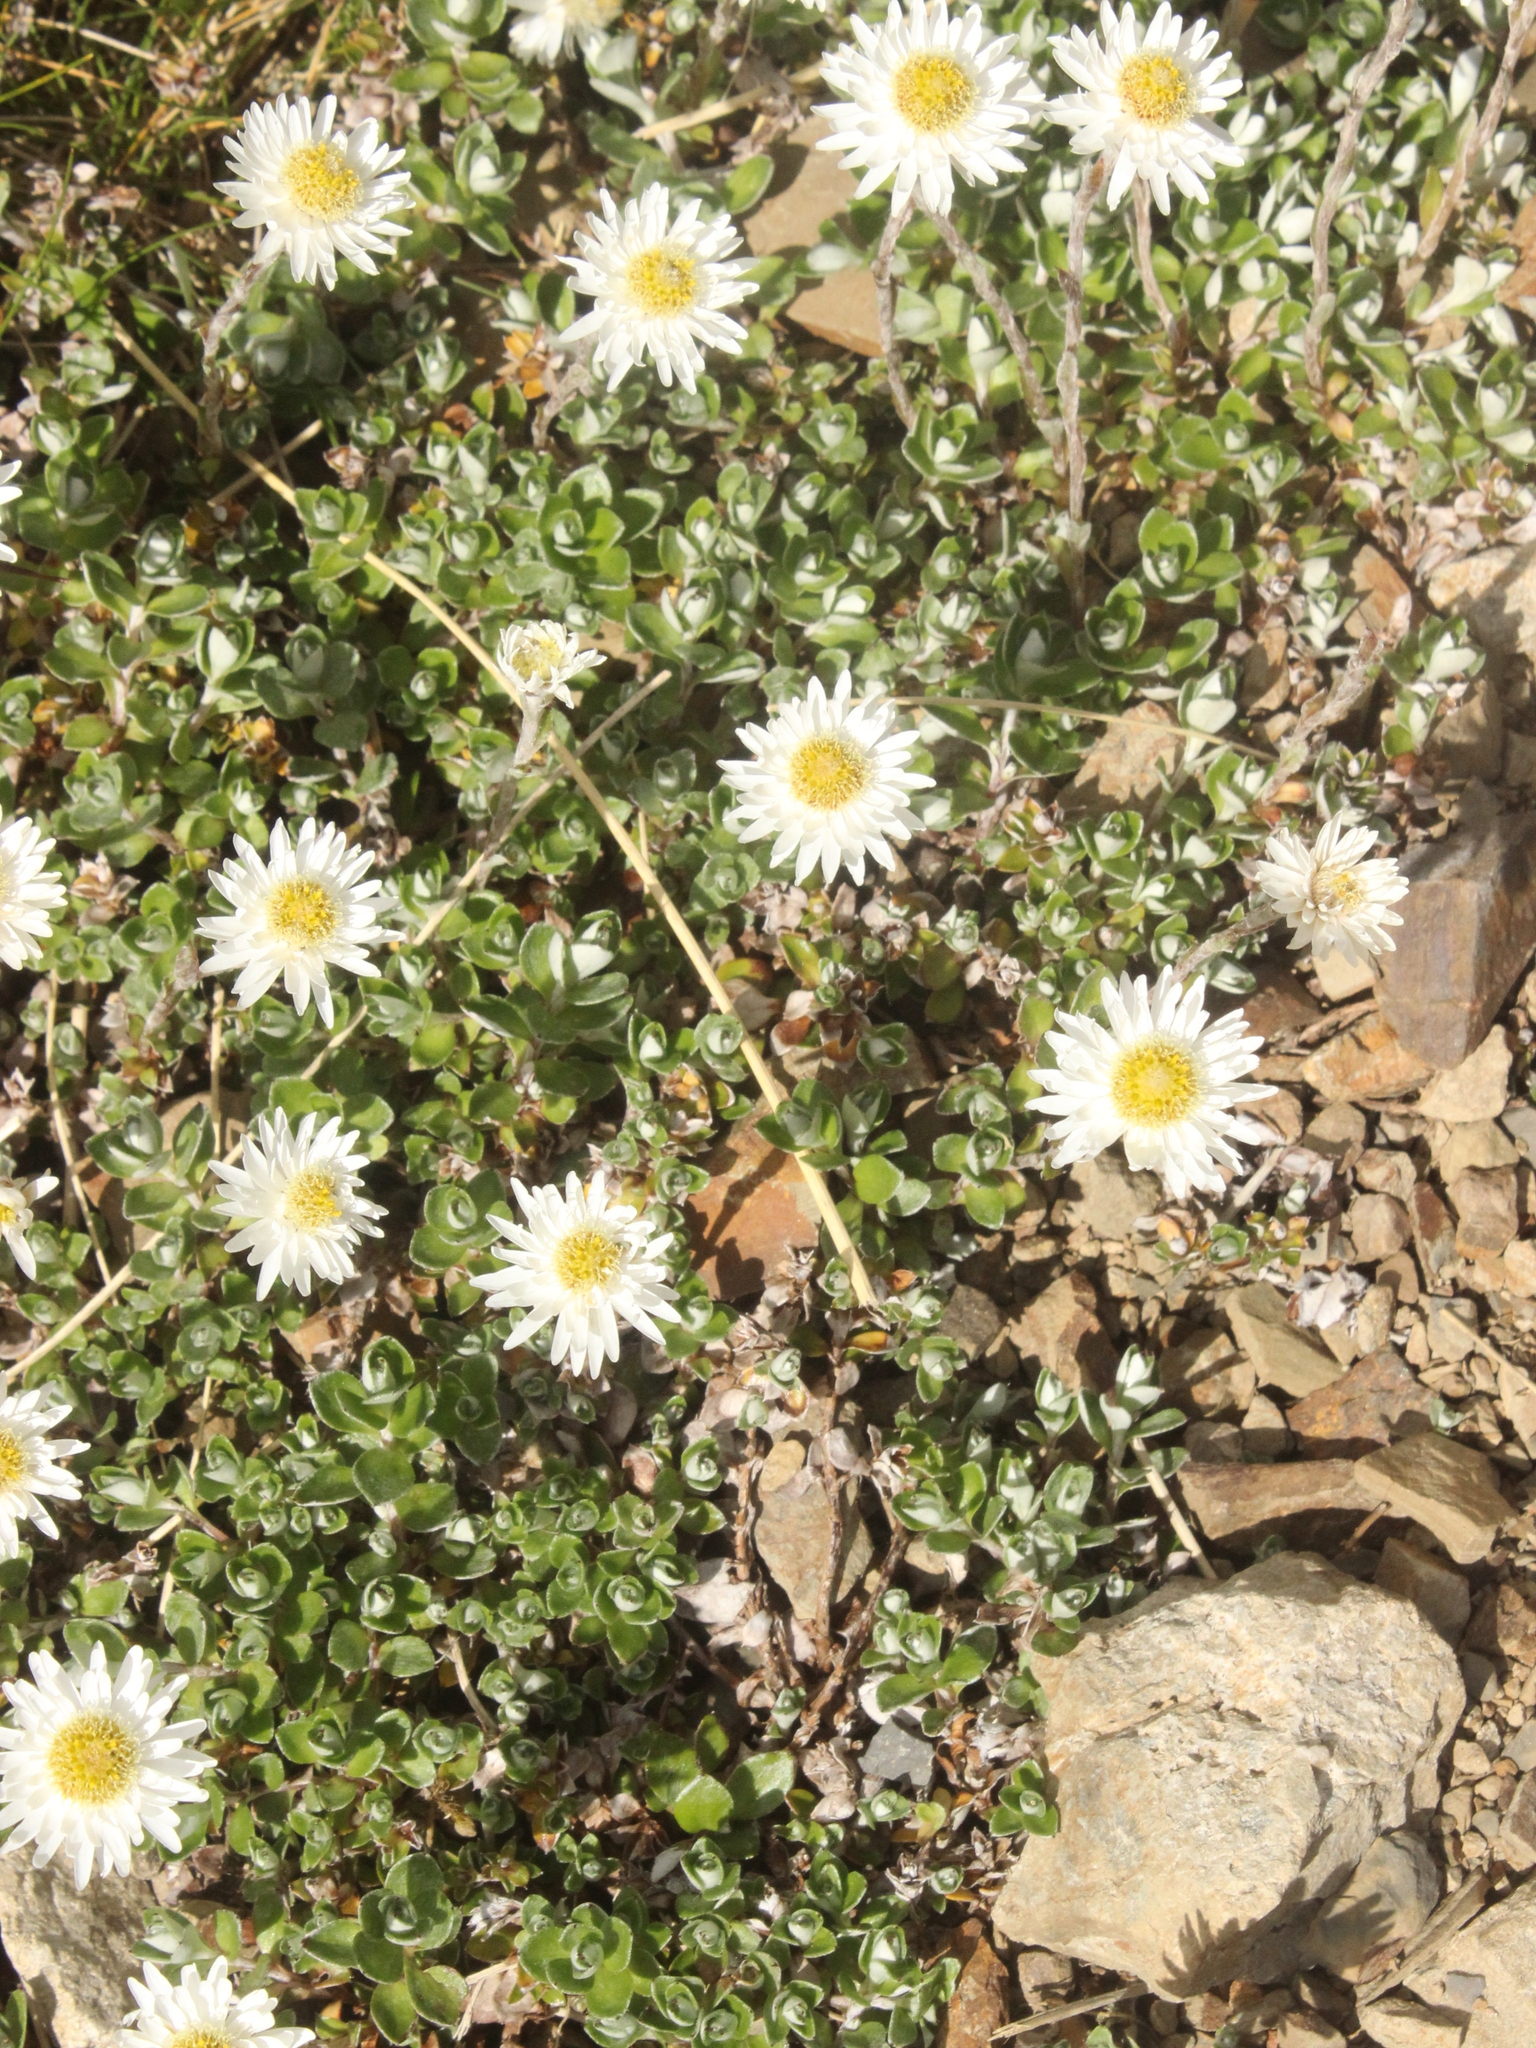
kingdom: Plantae
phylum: Tracheophyta
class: Magnoliopsida
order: Asterales
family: Asteraceae
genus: Anaphalioides
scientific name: Anaphalioides alpina
